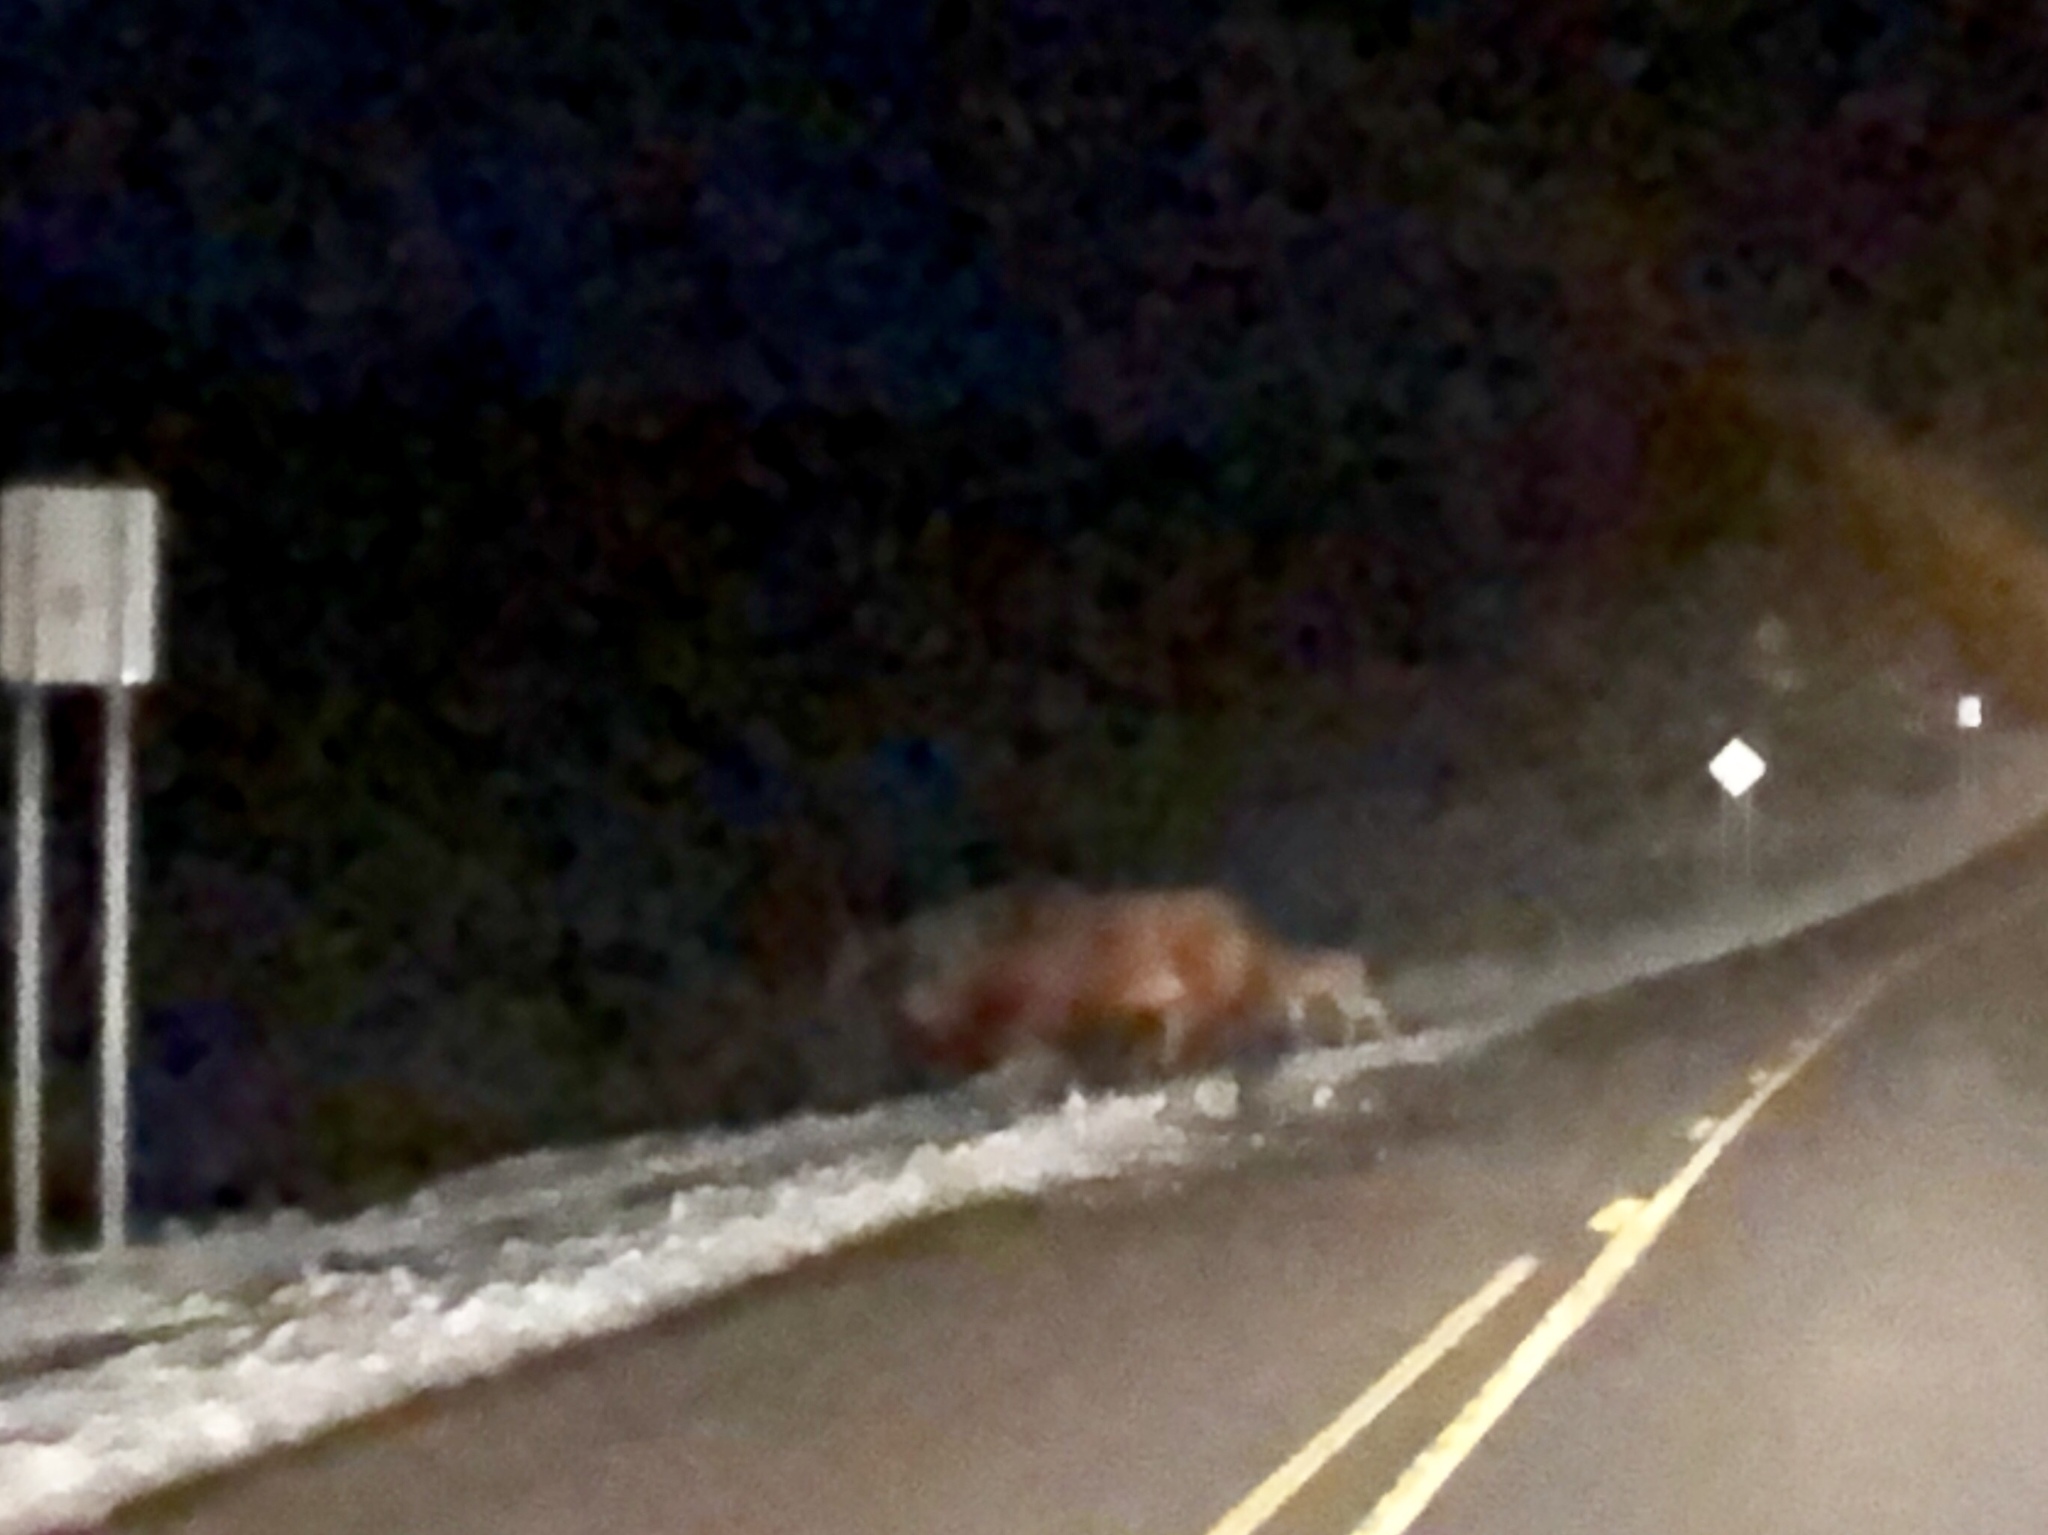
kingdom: Animalia
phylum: Chordata
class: Mammalia
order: Perissodactyla
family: Equidae
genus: Equus
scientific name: Equus caballus
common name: Horse
